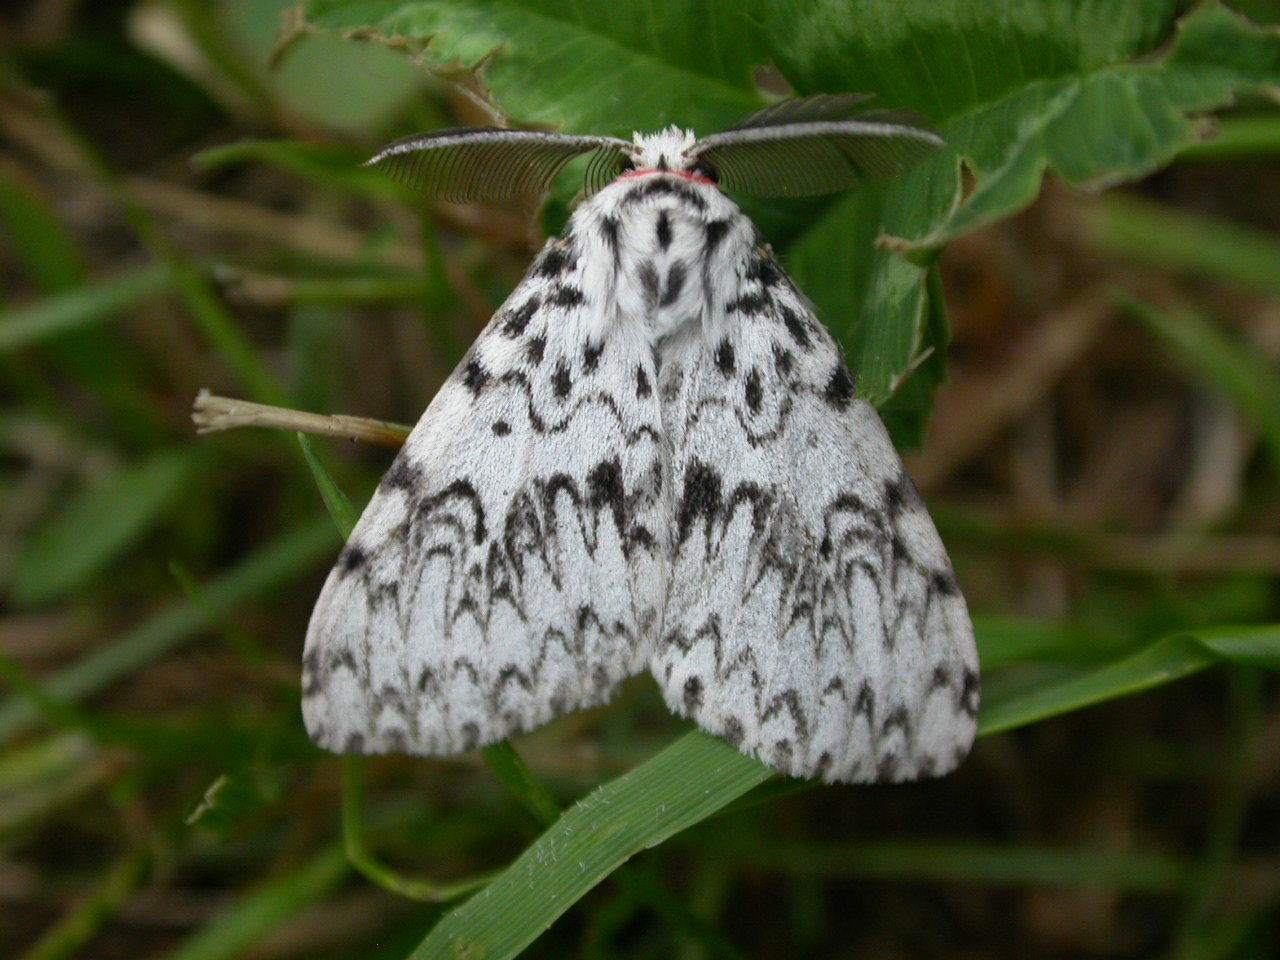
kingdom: Animalia
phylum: Arthropoda
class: Insecta
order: Lepidoptera
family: Erebidae
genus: Lymantria
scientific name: Lymantria monacha
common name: Black arches
